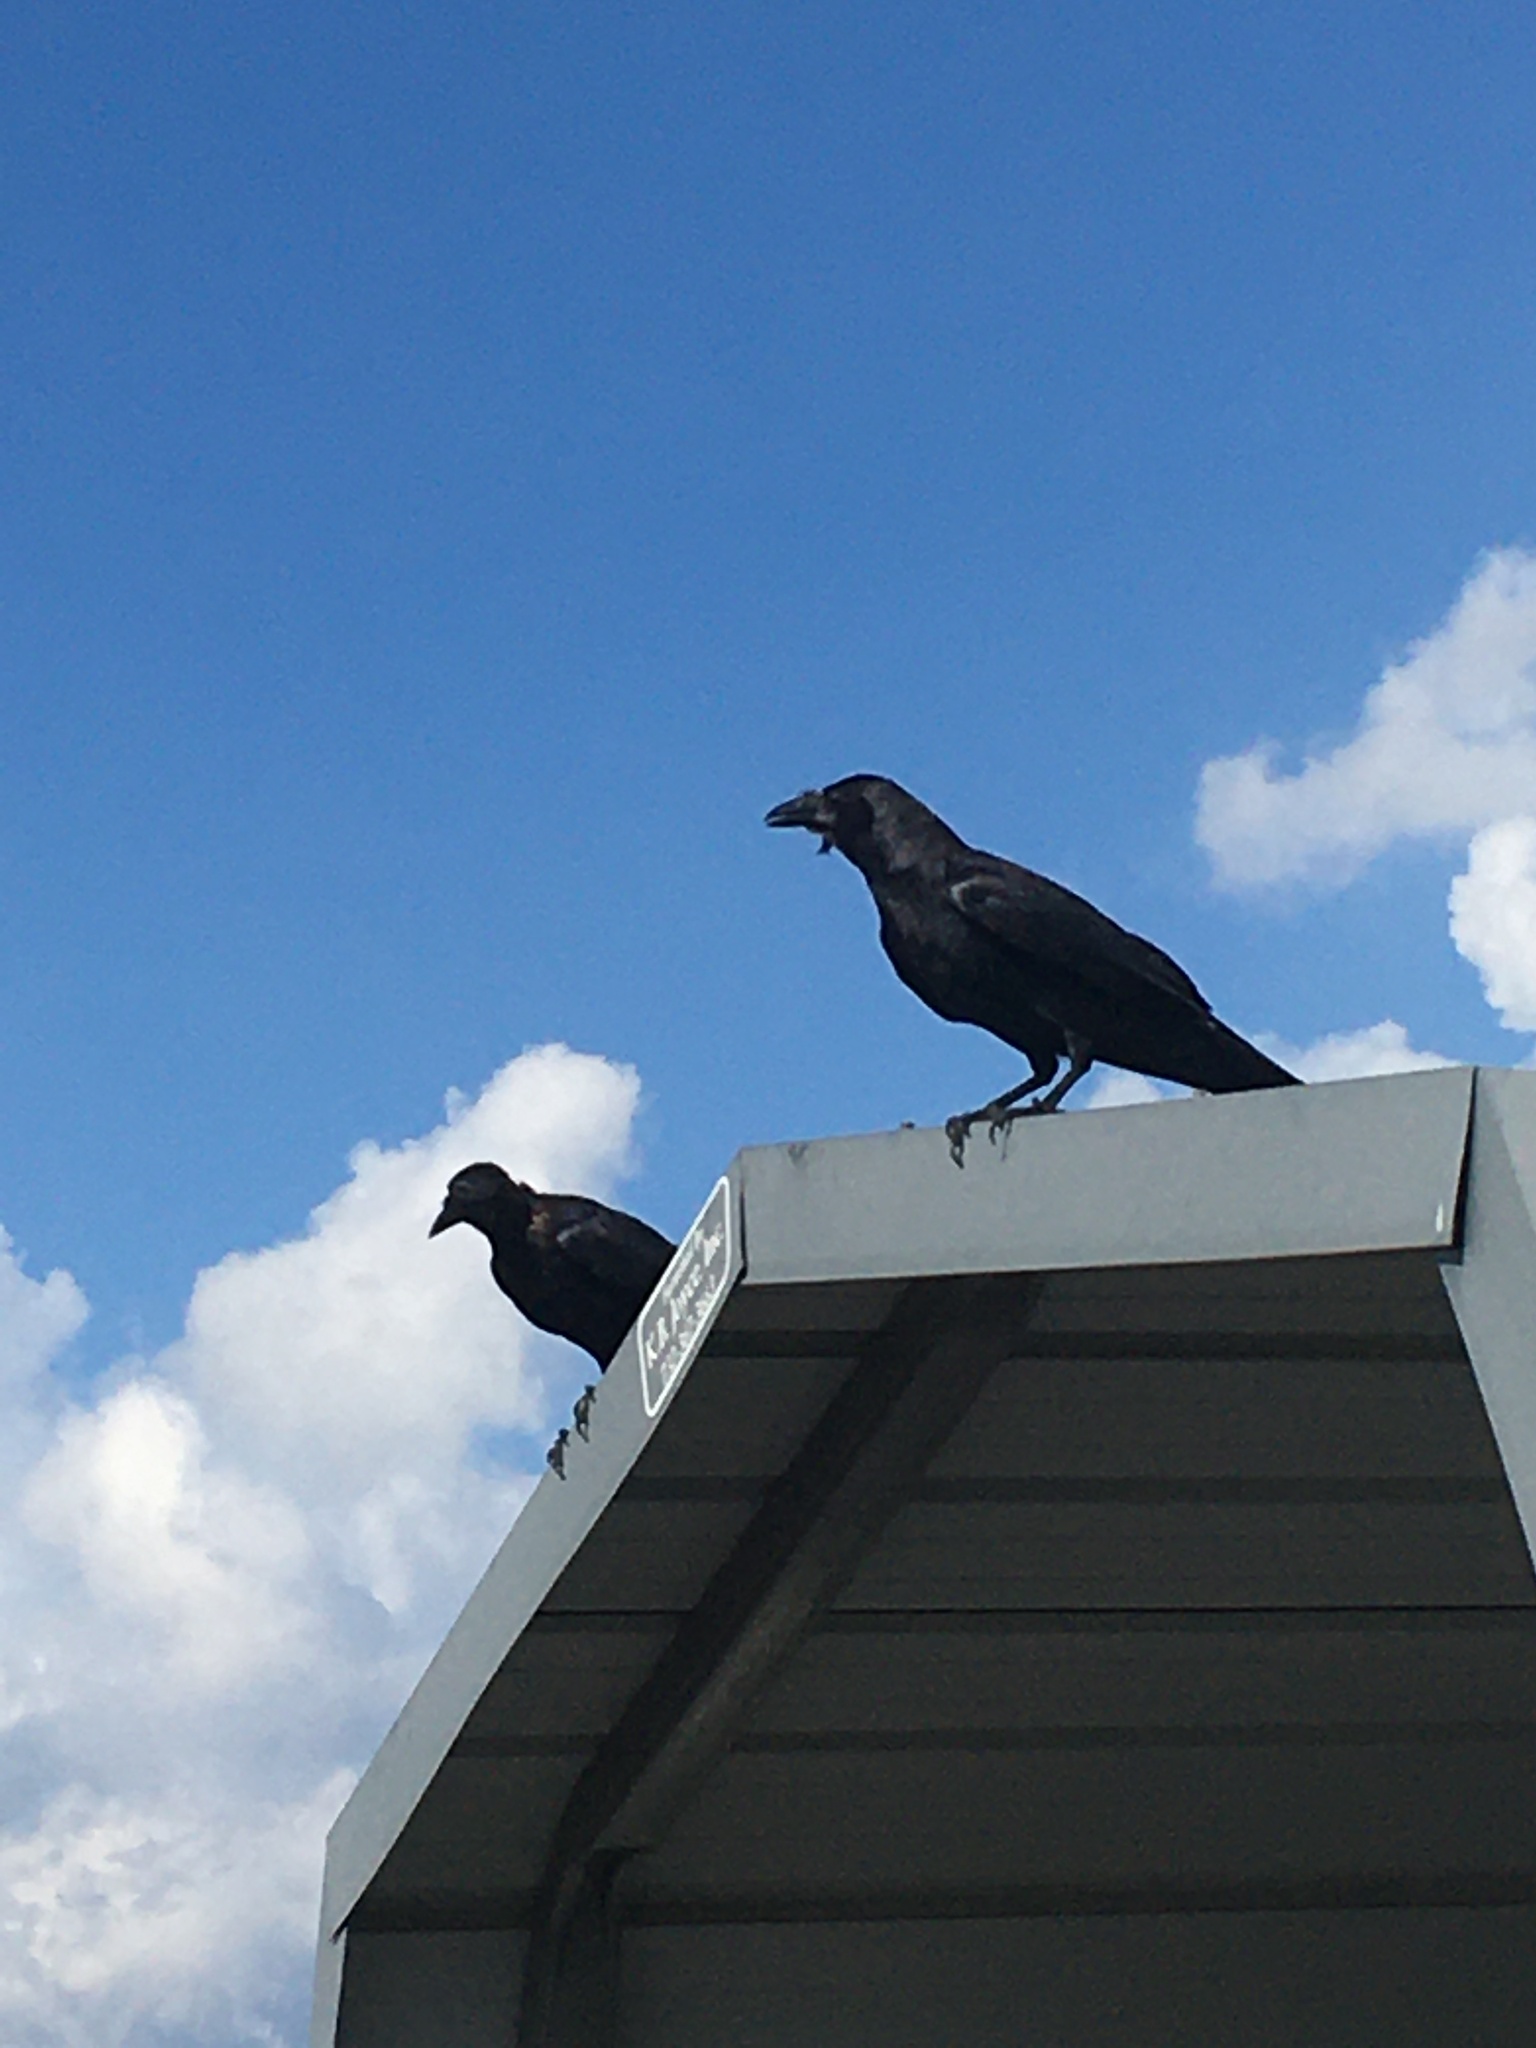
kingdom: Animalia
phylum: Chordata
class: Aves
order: Passeriformes
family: Corvidae
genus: Corvus
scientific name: Corvus brachyrhynchos
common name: American crow
